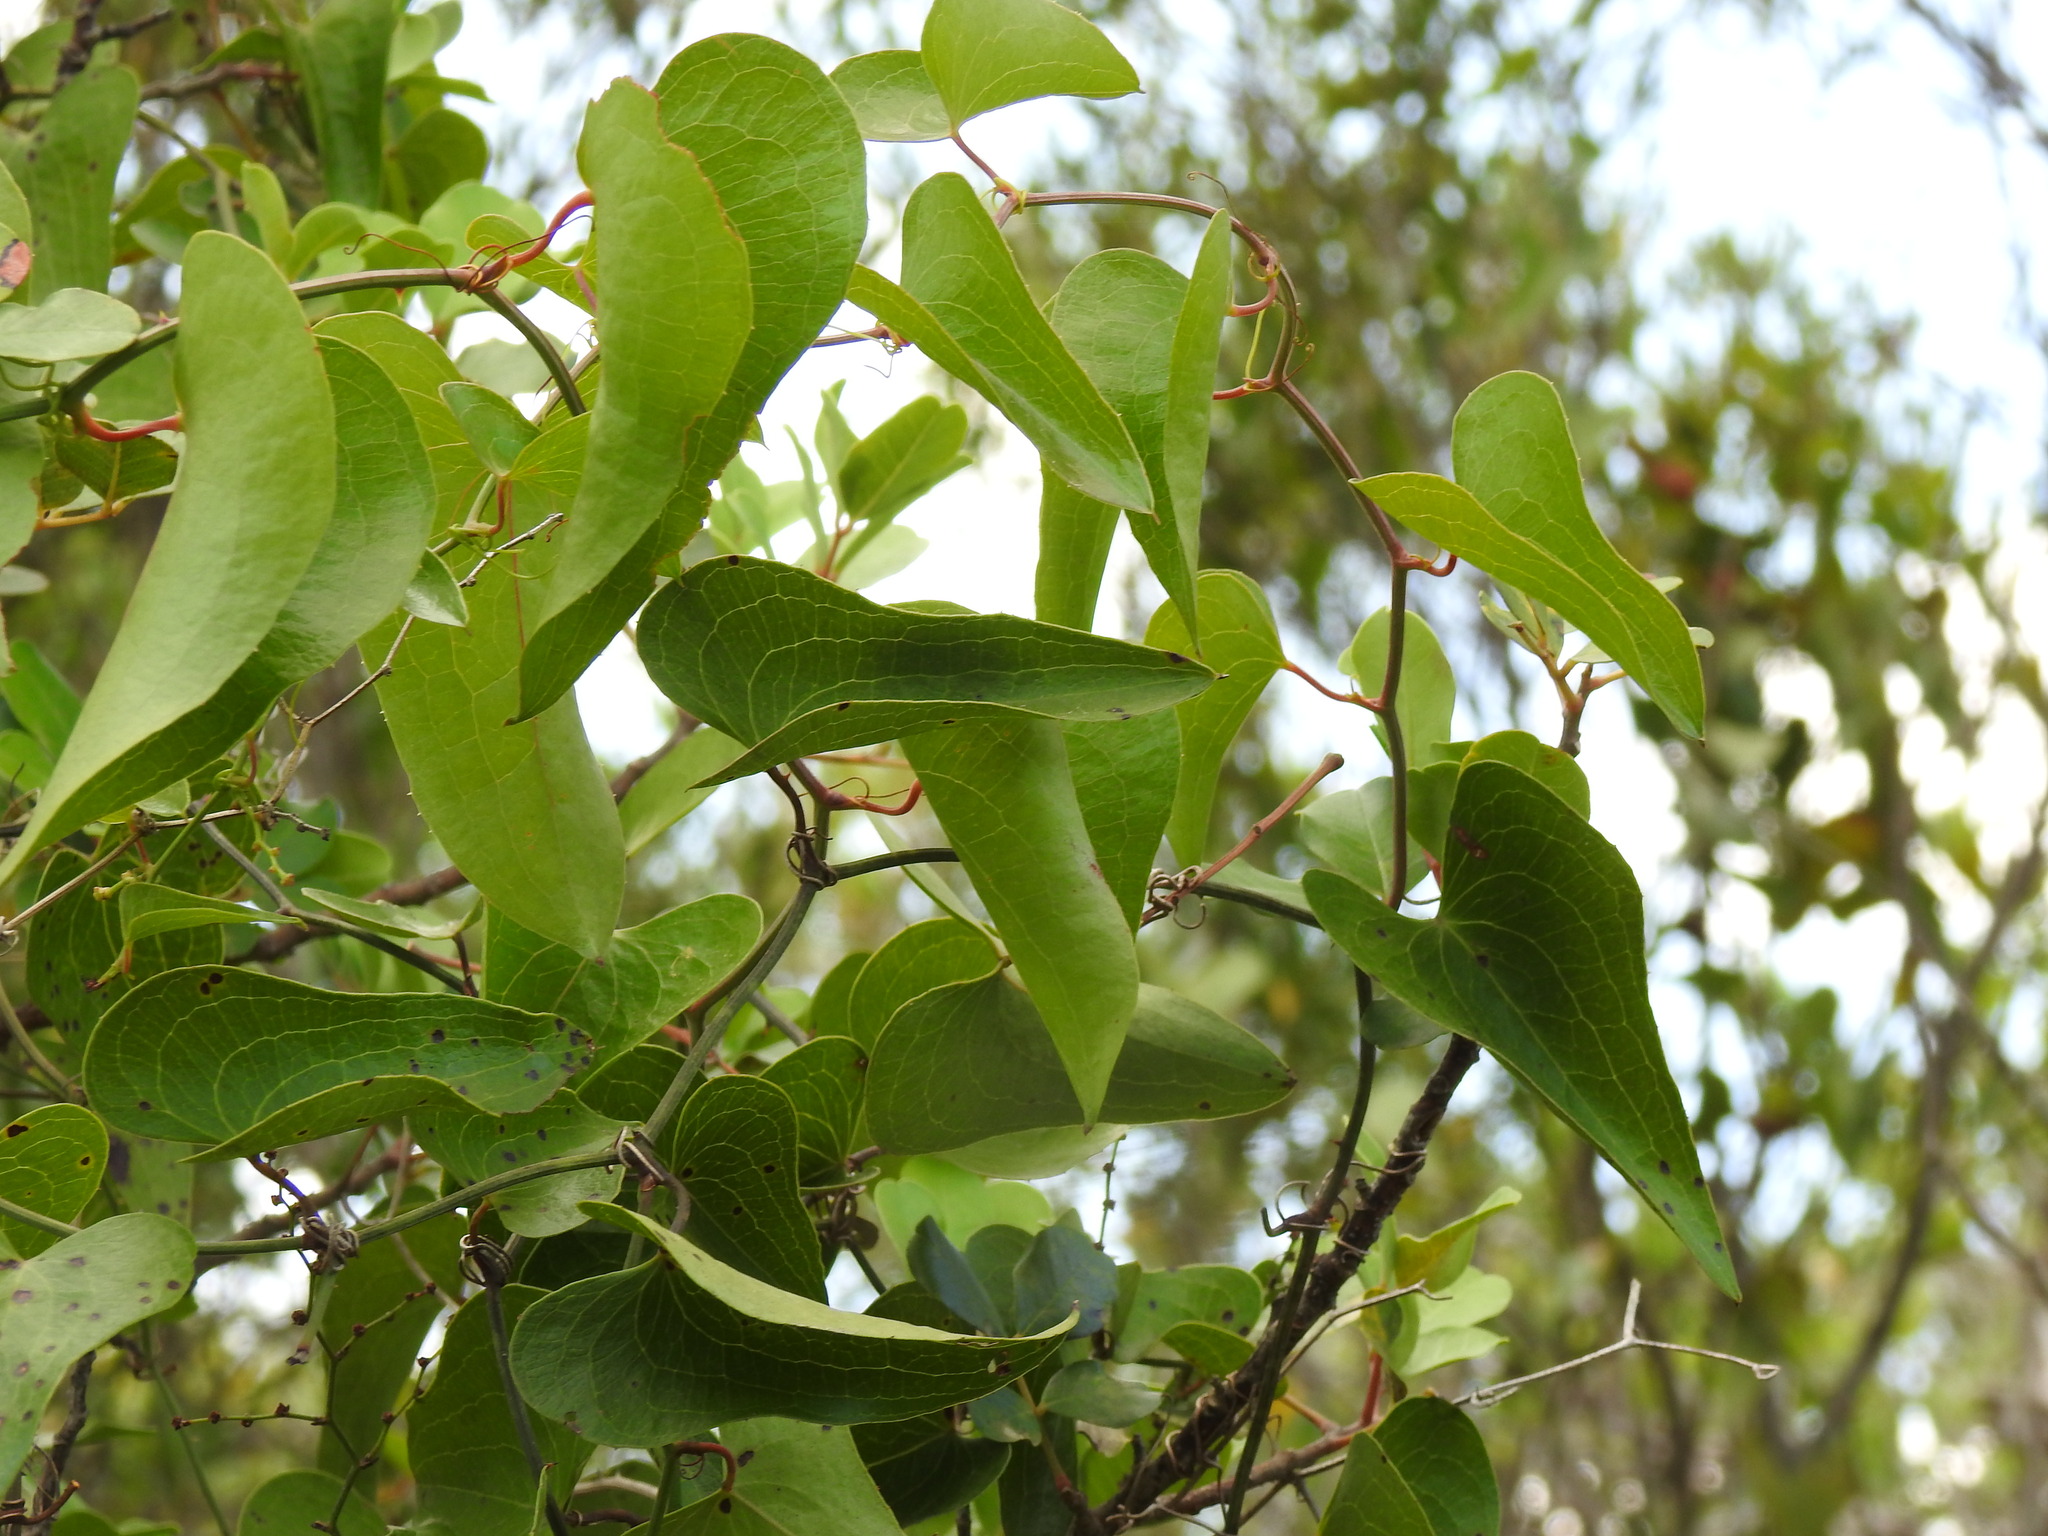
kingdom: Plantae
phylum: Tracheophyta
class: Liliopsida
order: Liliales
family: Smilacaceae
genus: Smilax
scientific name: Smilax aspera
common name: Common smilax
